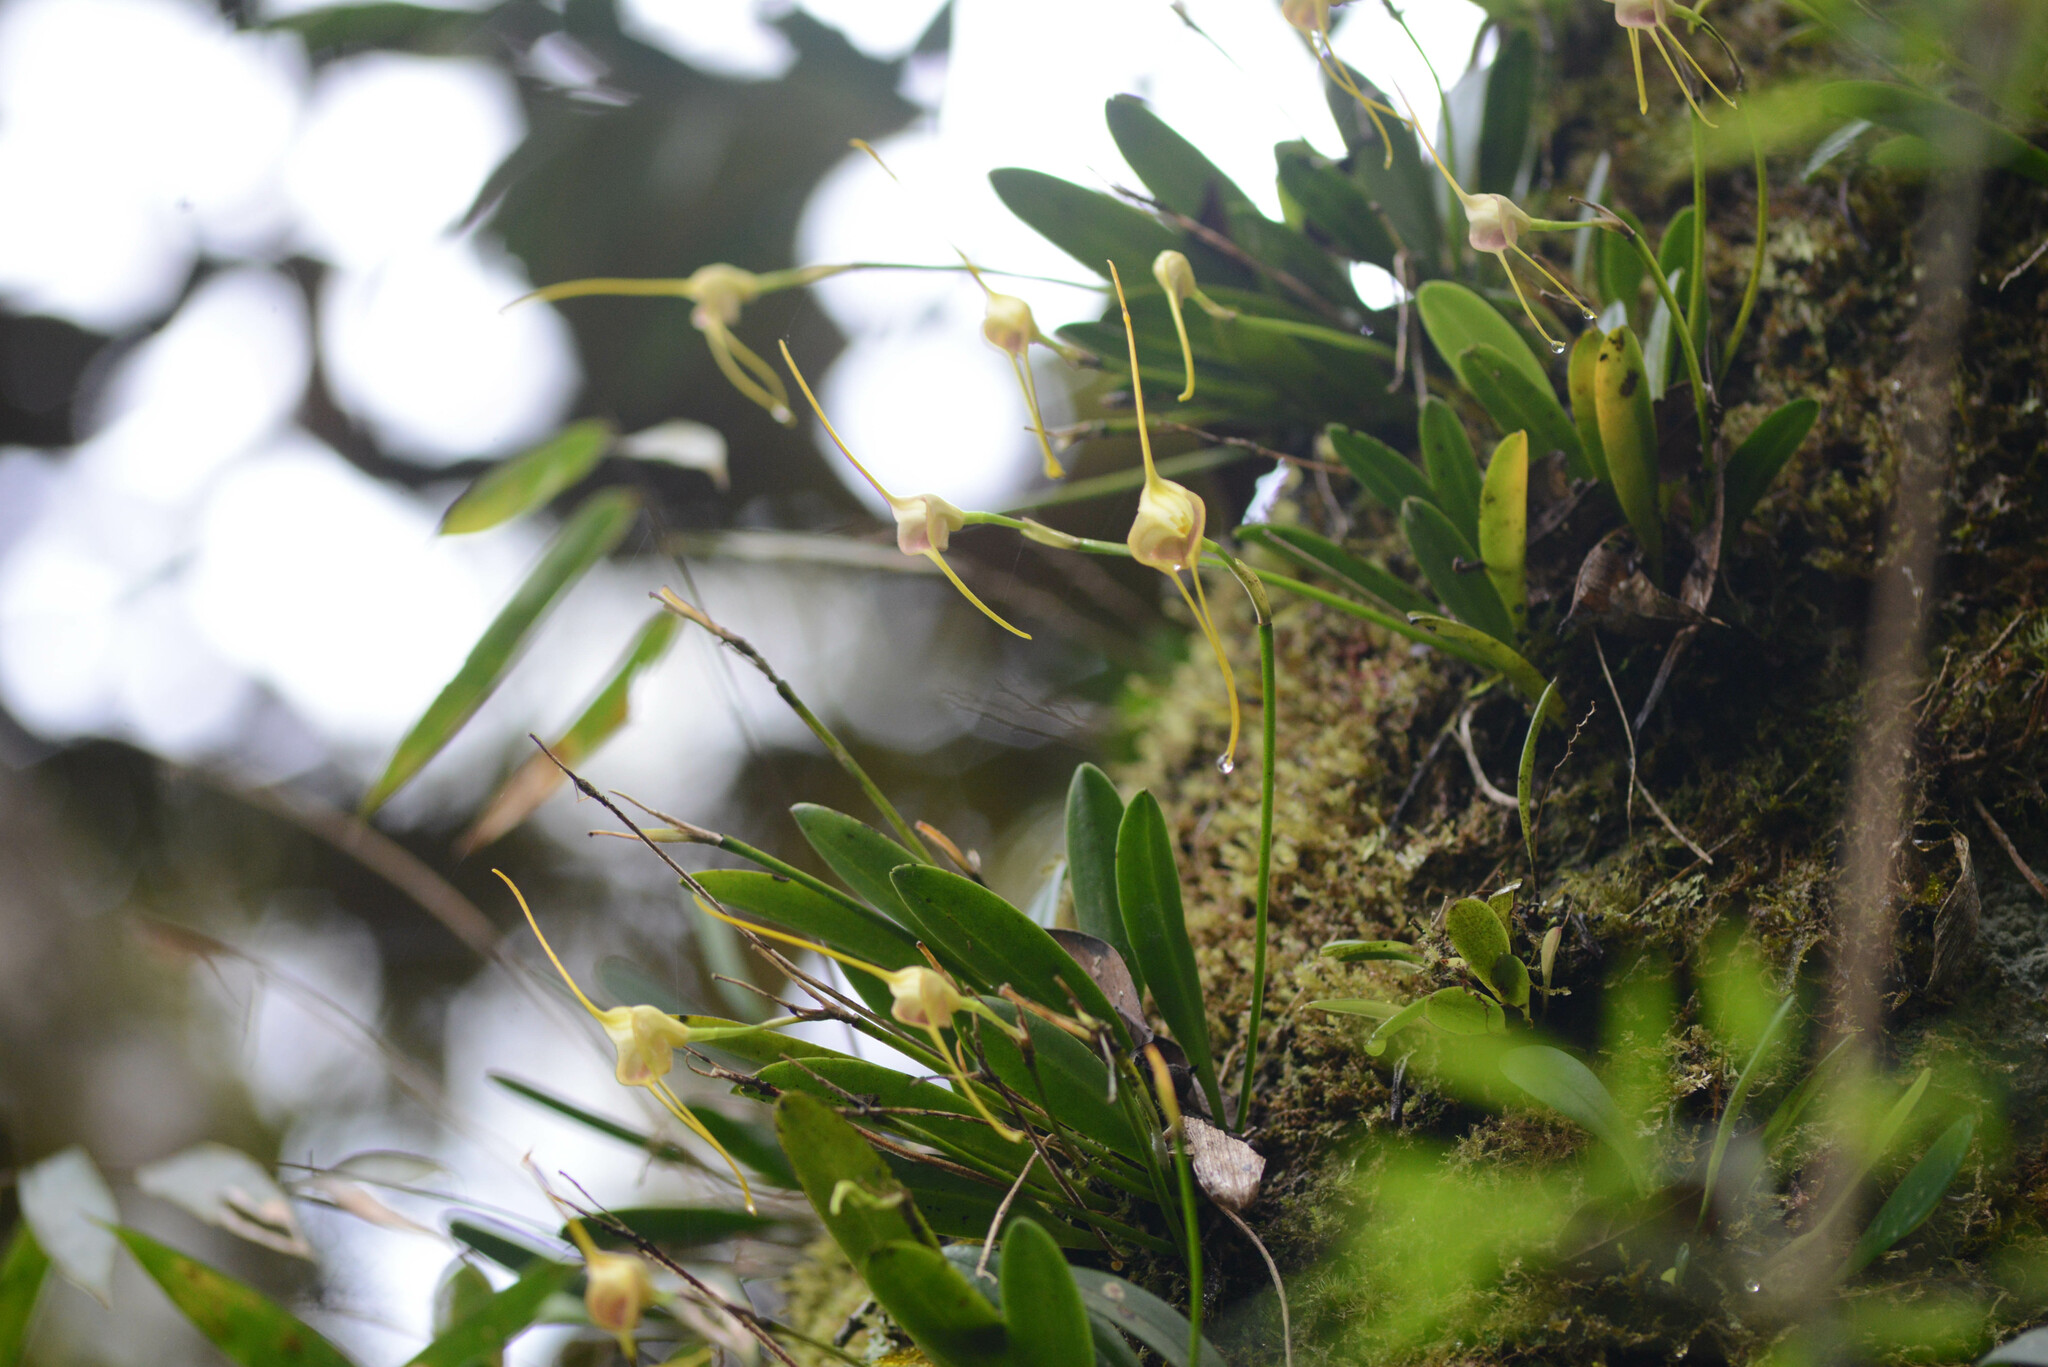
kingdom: Plantae
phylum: Tracheophyta
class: Liliopsida
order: Asparagales
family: Orchidaceae
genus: Masdevallia
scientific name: Masdevallia infracta
